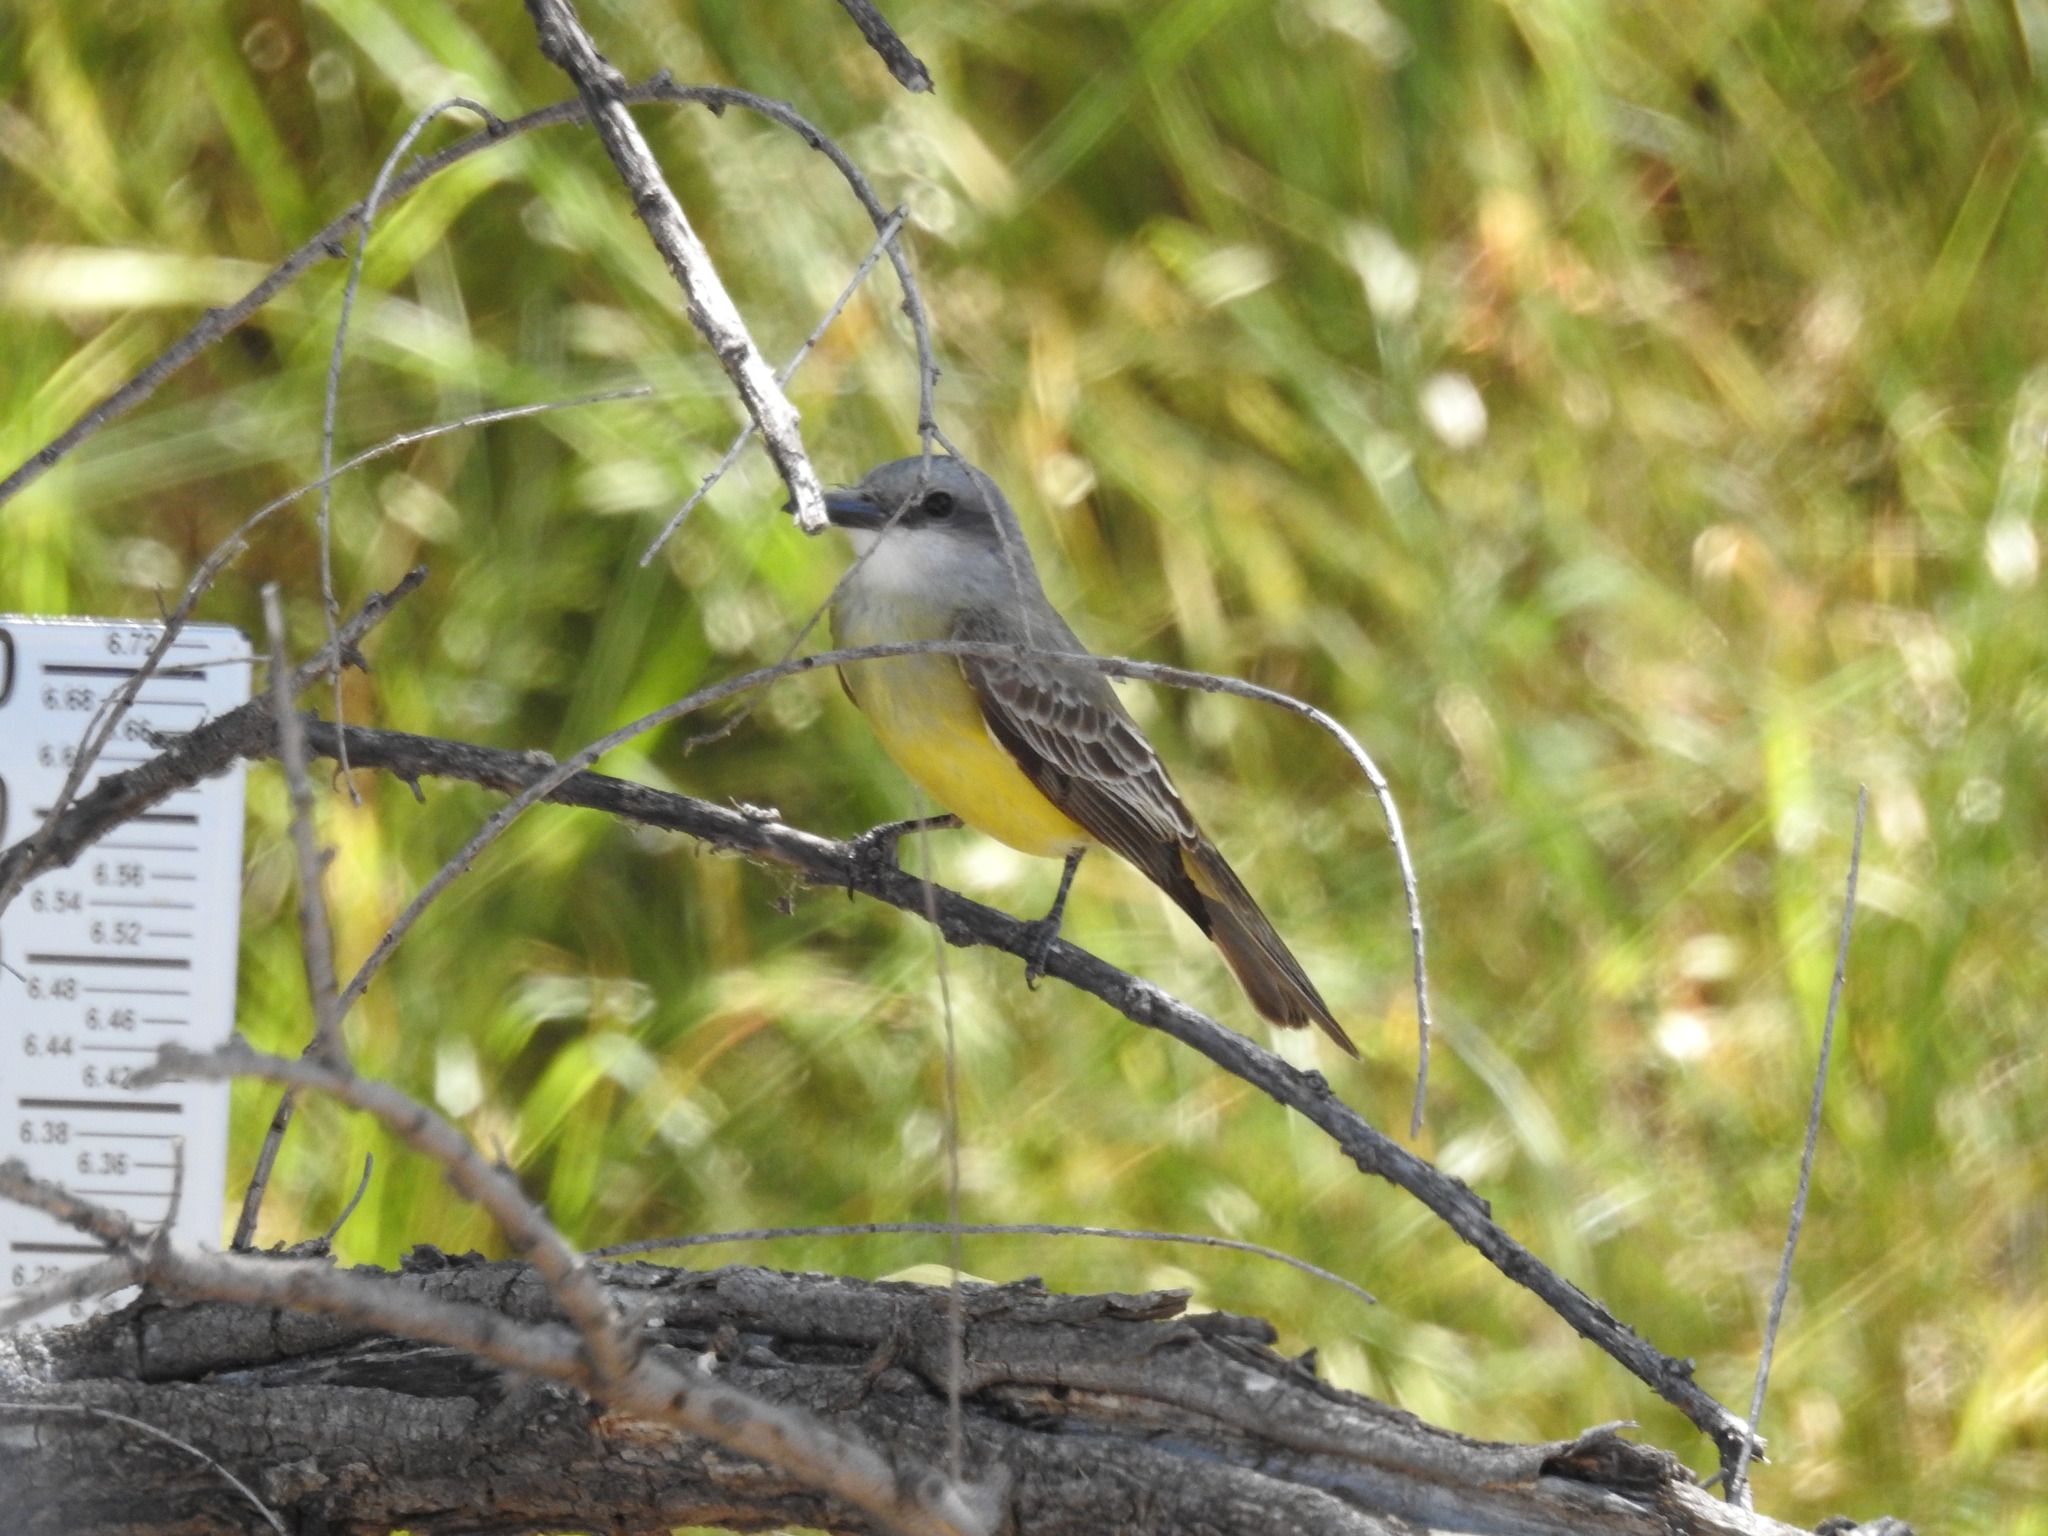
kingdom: Animalia
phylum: Chordata
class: Aves
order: Passeriformes
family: Tyrannidae
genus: Tyrannus
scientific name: Tyrannus melancholicus
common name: Tropical kingbird
